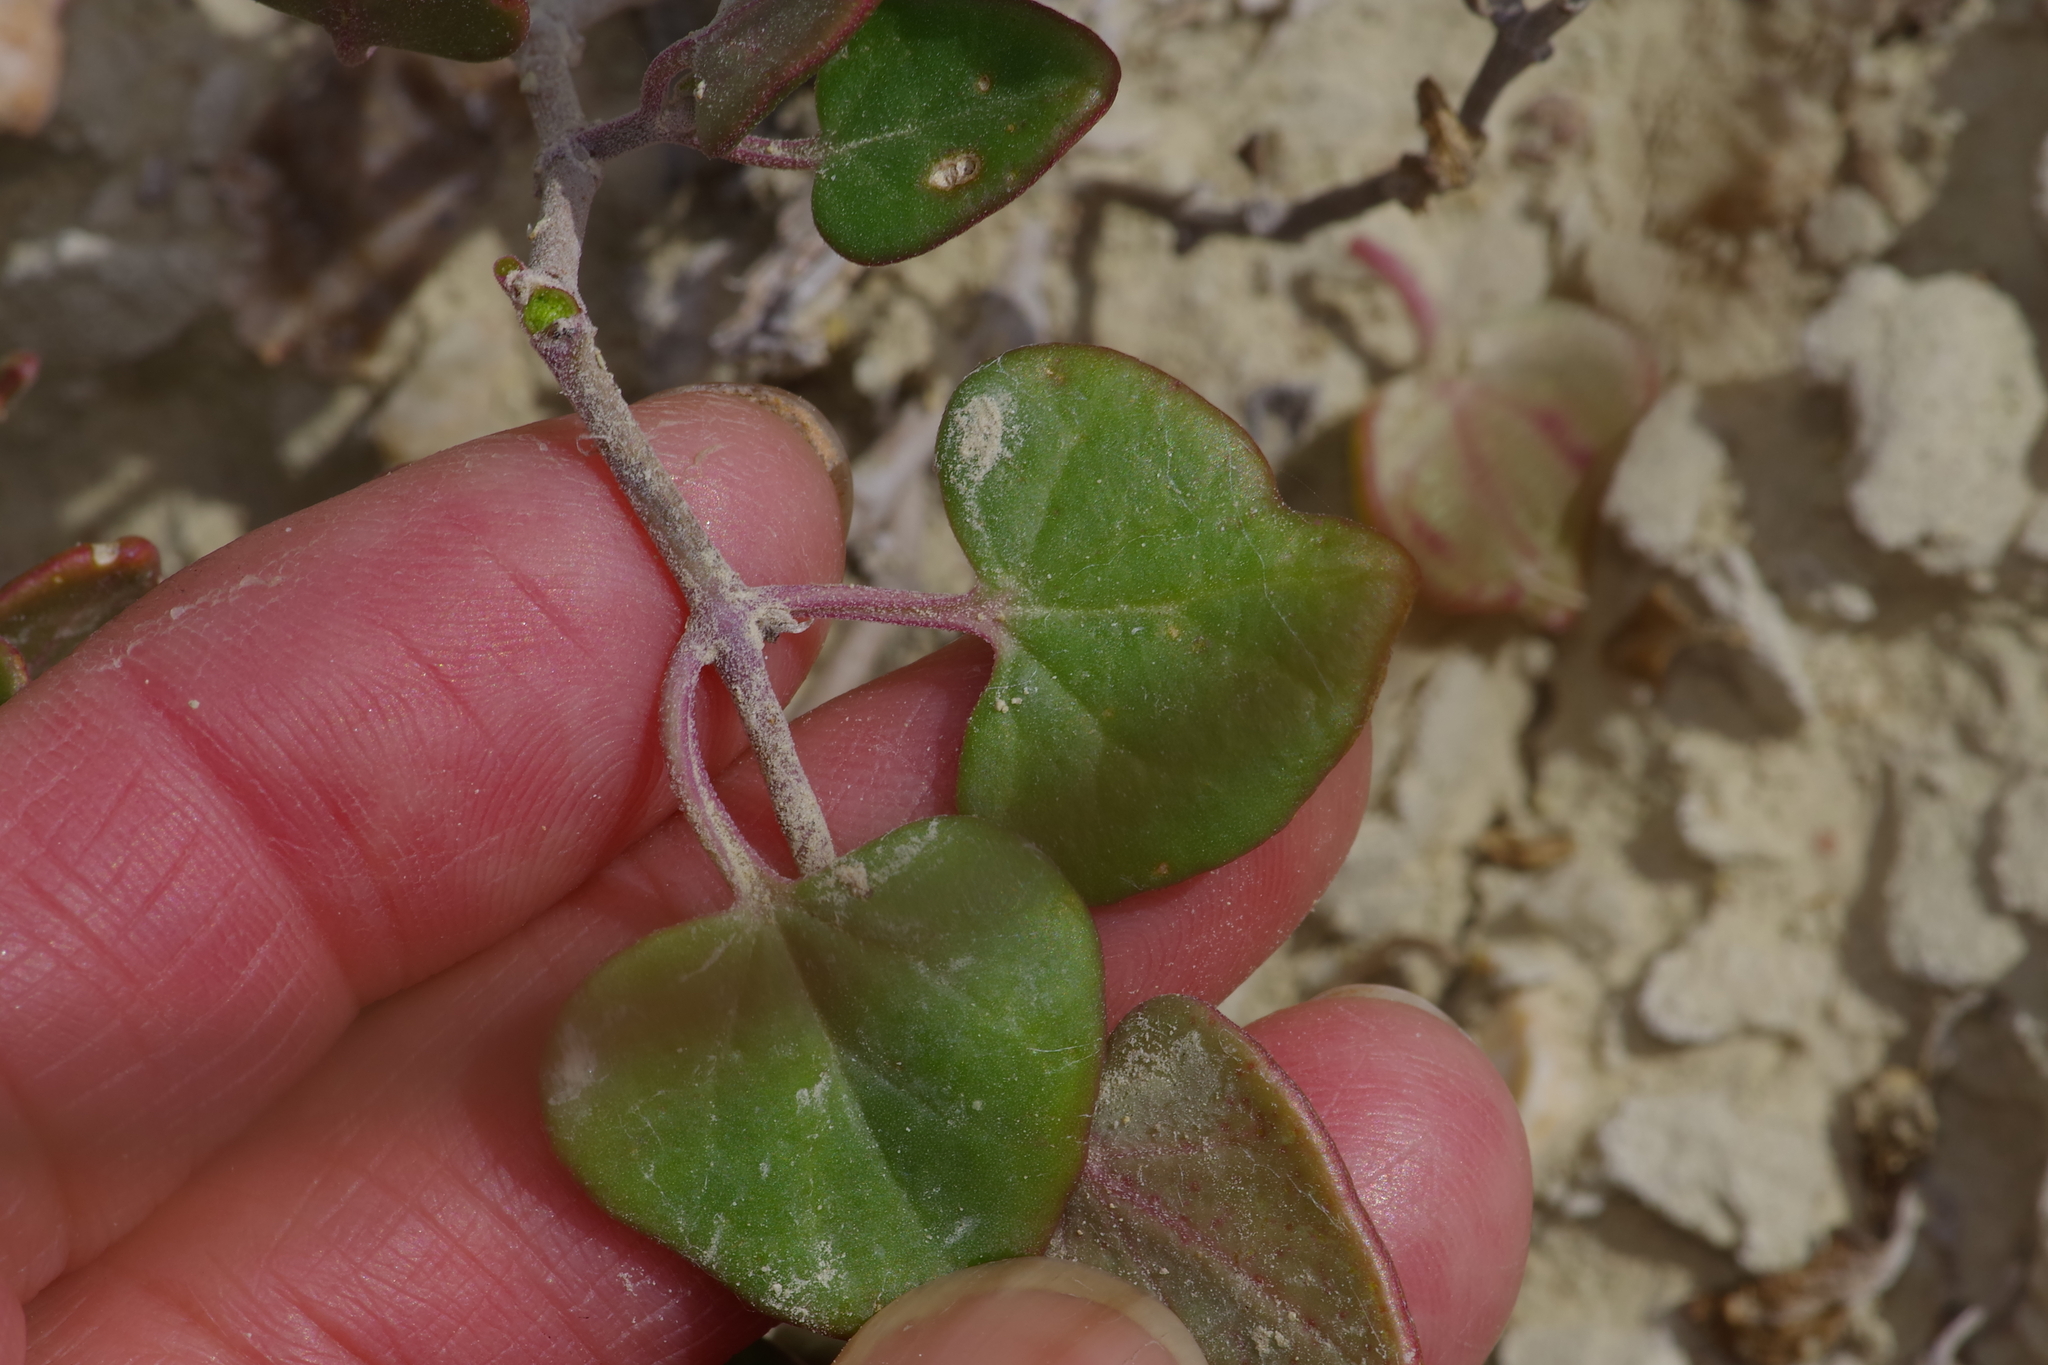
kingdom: Plantae
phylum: Tracheophyta
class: Magnoliopsida
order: Caryophyllales
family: Nyctaginaceae
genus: Acleisanthes
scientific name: Acleisanthes obtusa
